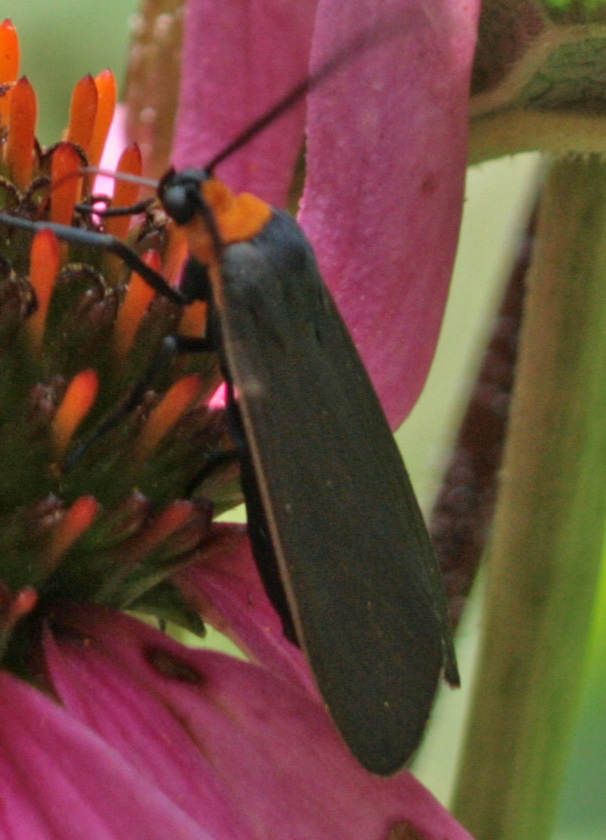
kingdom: Animalia
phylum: Arthropoda
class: Insecta
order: Lepidoptera
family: Erebidae
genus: Cisseps
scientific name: Cisseps fulvicollis
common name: Yellow-collared scape moth
